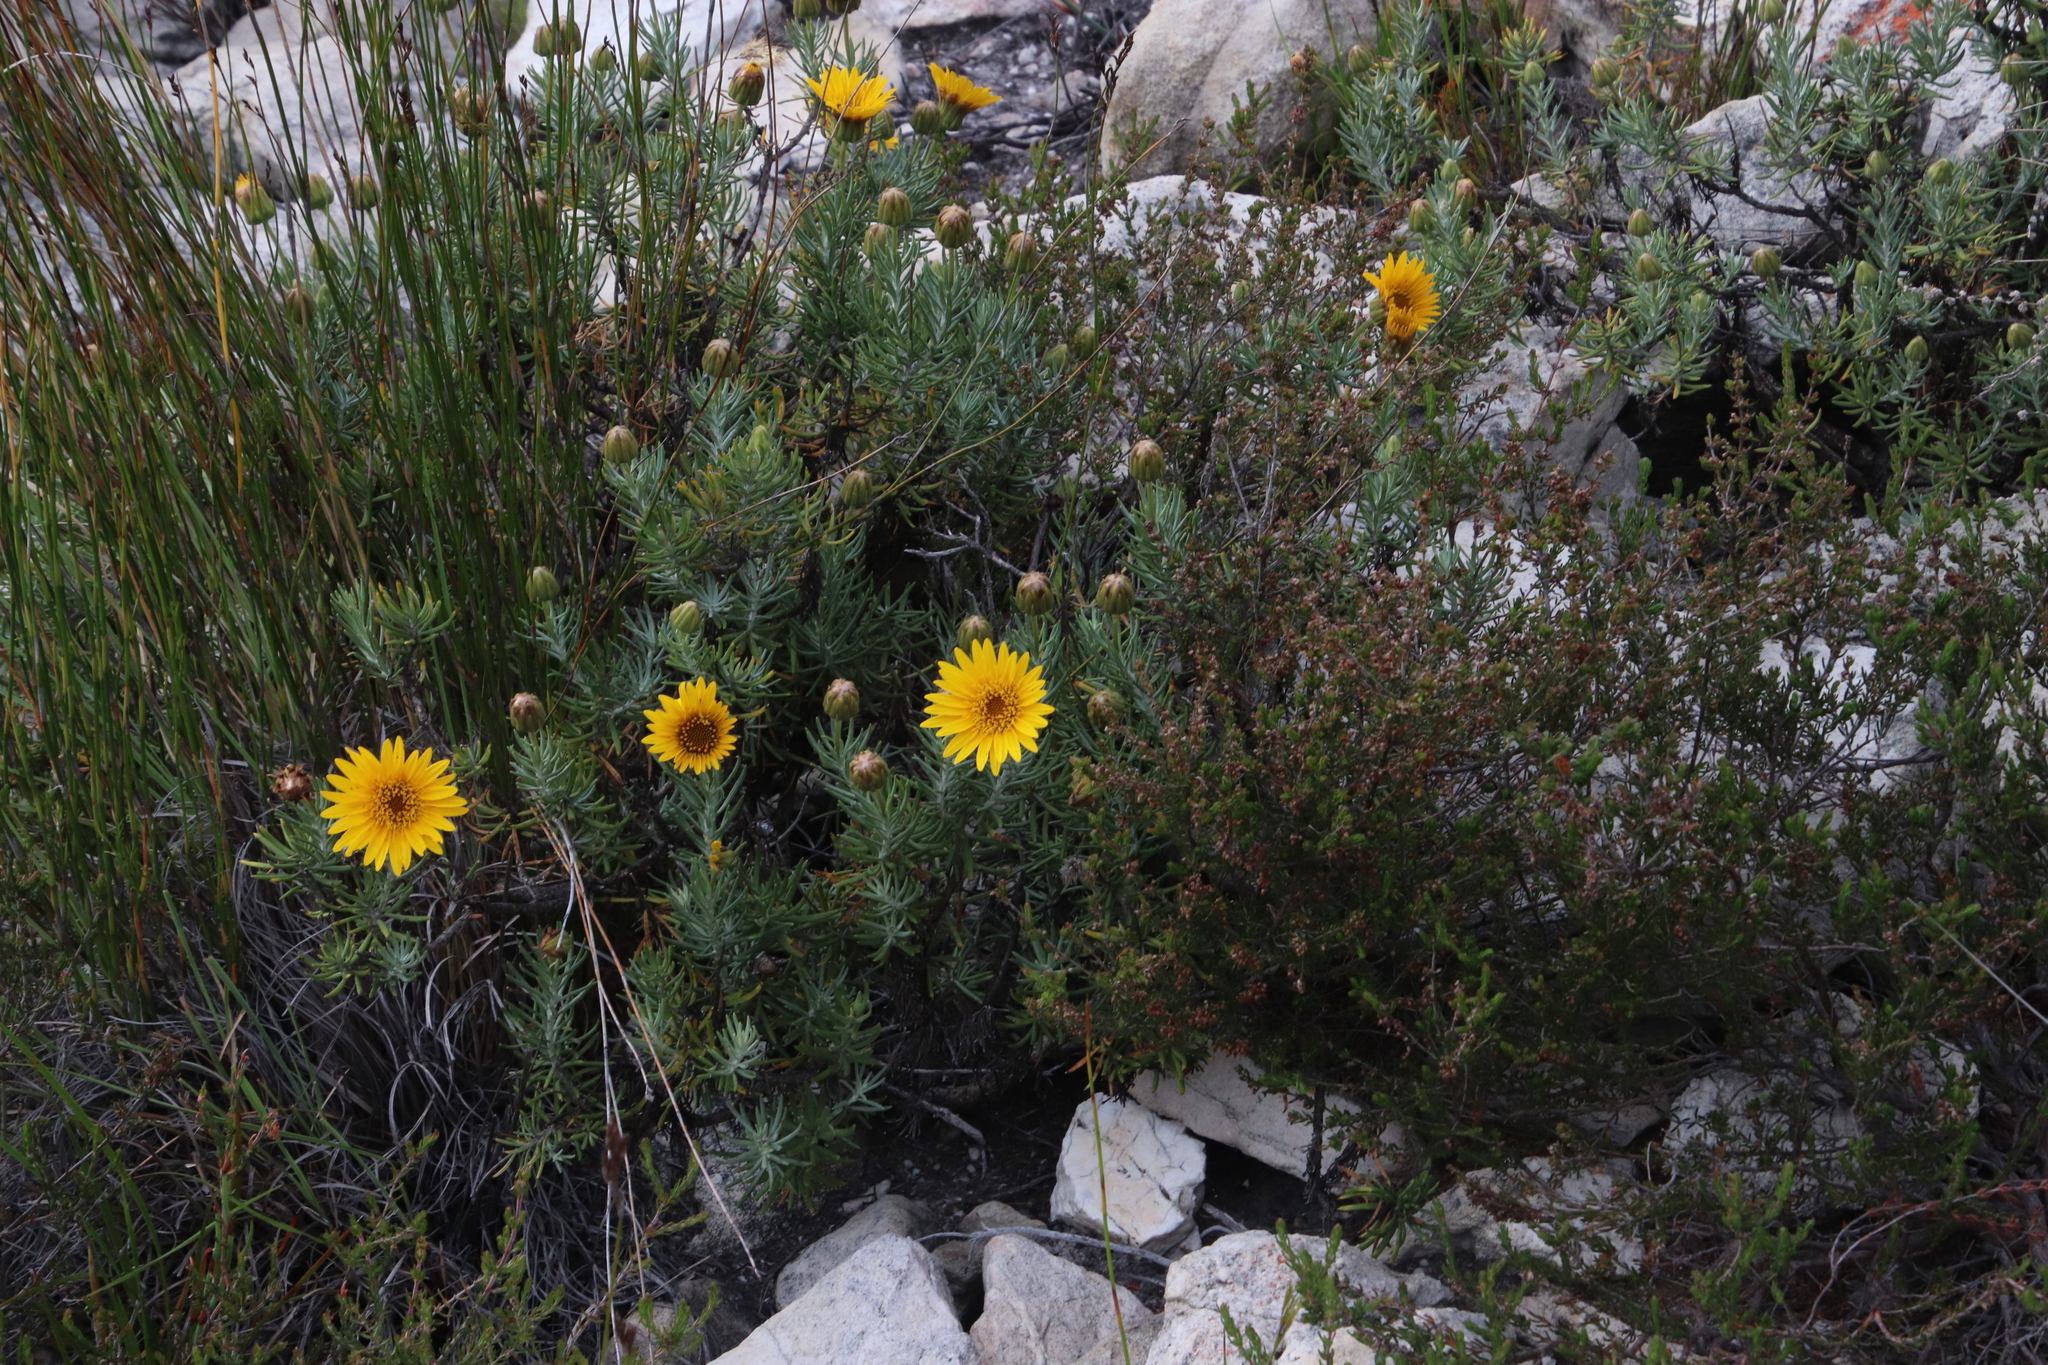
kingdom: Plantae
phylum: Tracheophyta
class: Magnoliopsida
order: Asterales
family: Asteraceae
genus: Heterolepis
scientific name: Heterolepis aliena
